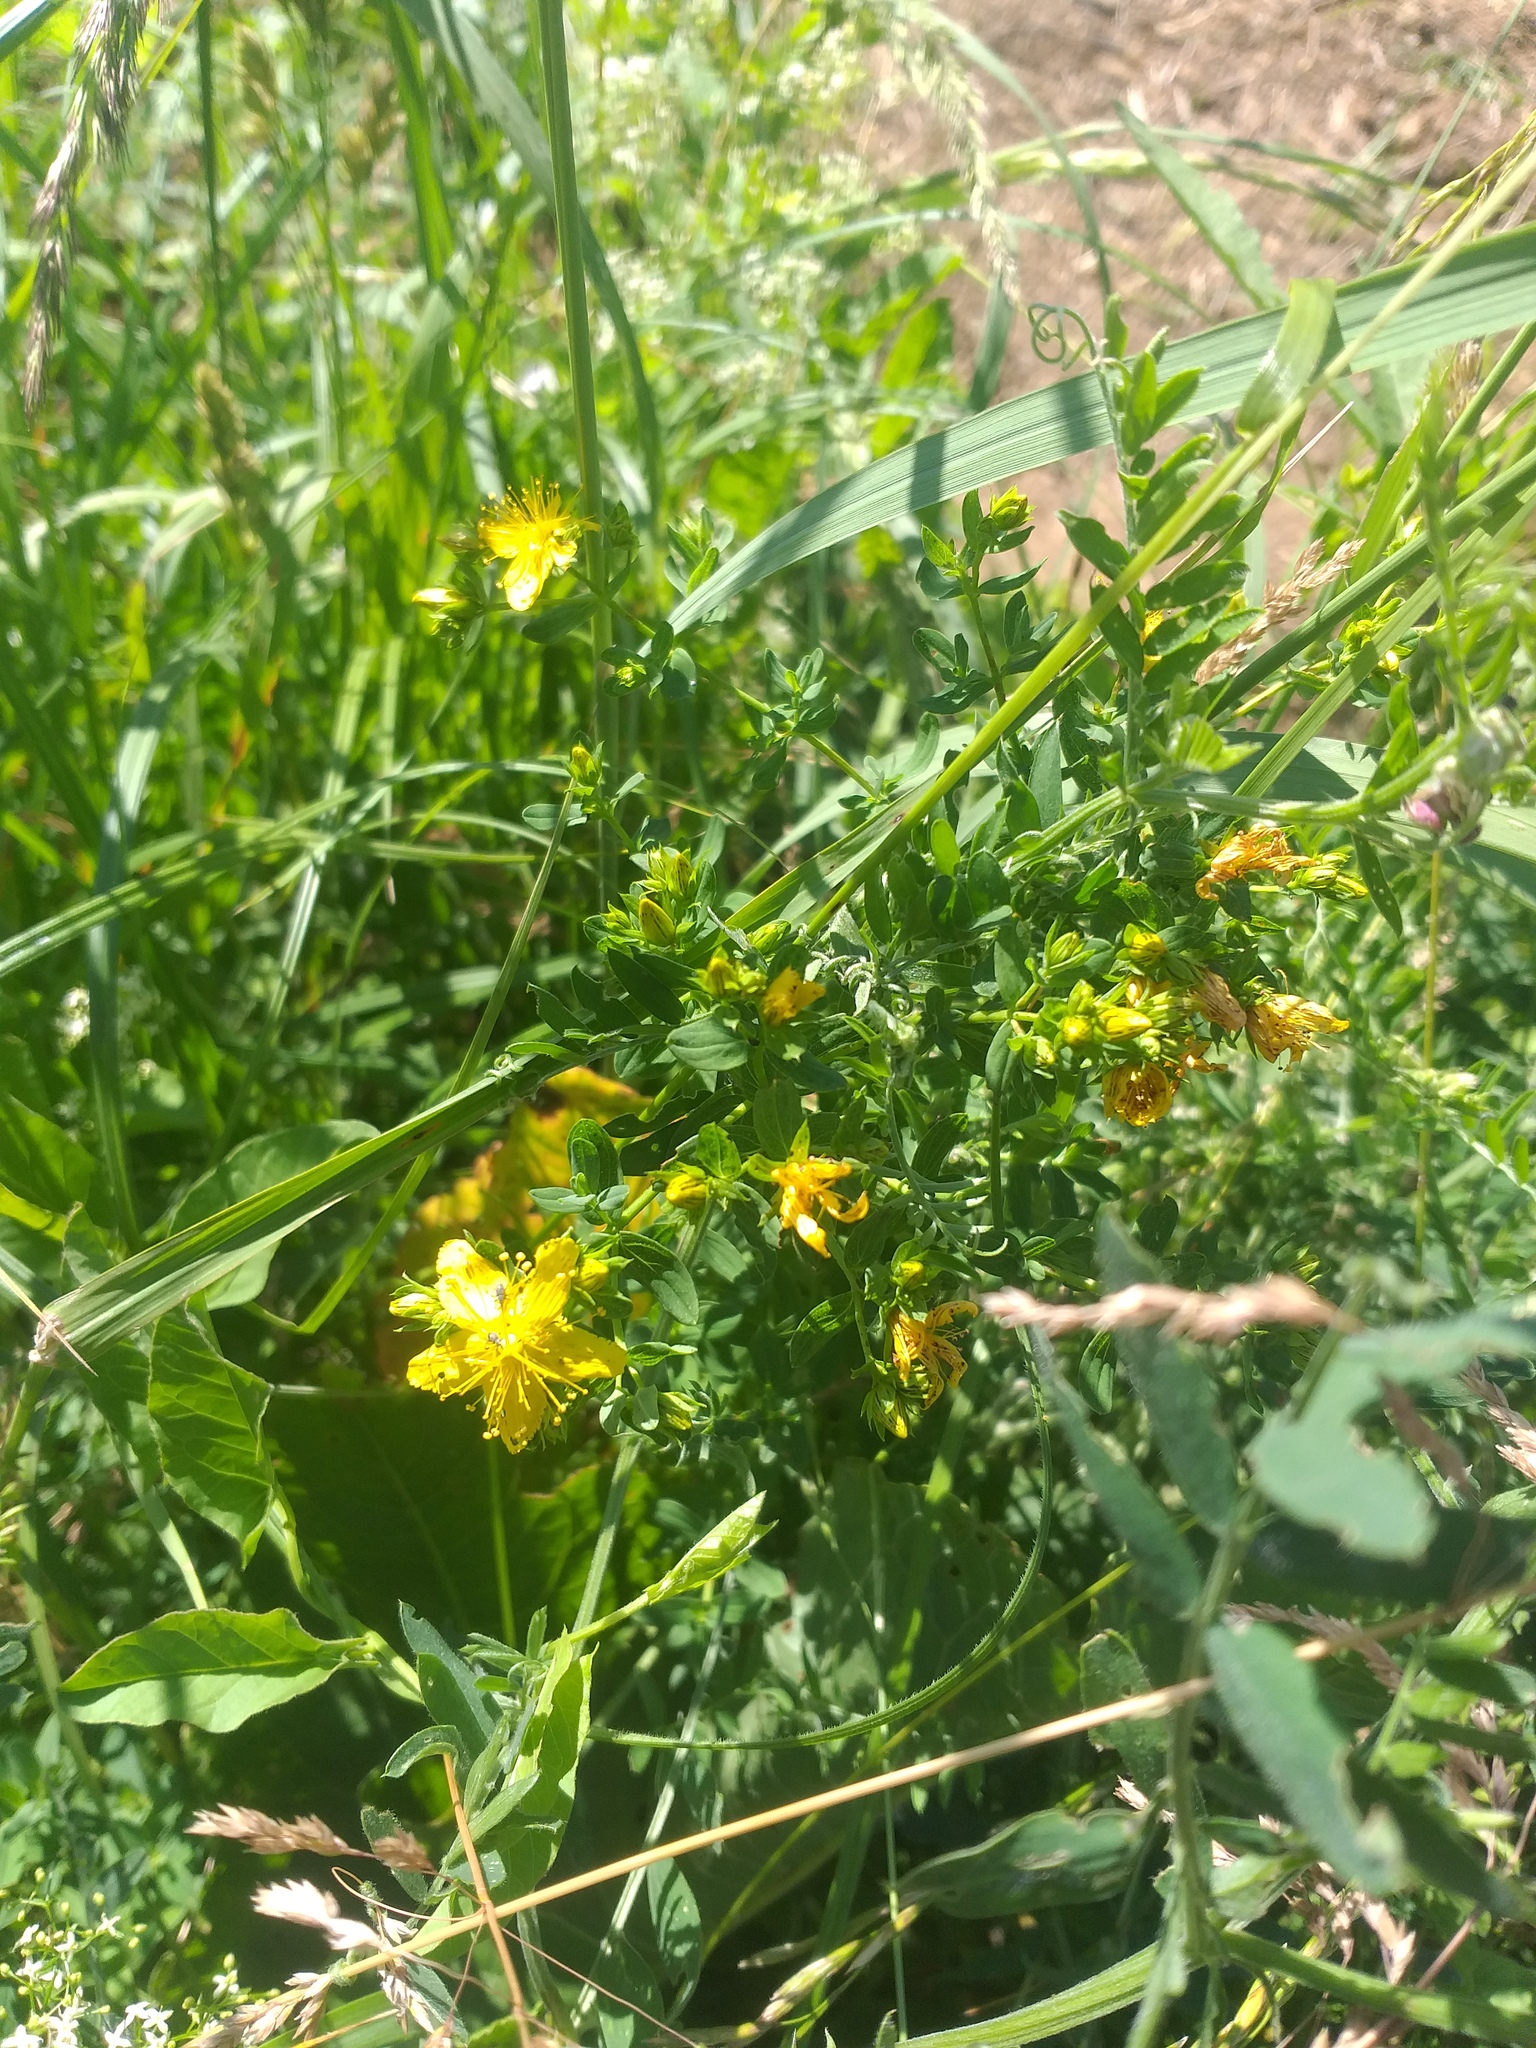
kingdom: Plantae
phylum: Tracheophyta
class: Magnoliopsida
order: Malpighiales
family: Hypericaceae
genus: Hypericum
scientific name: Hypericum perforatum
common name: Common st. johnswort
